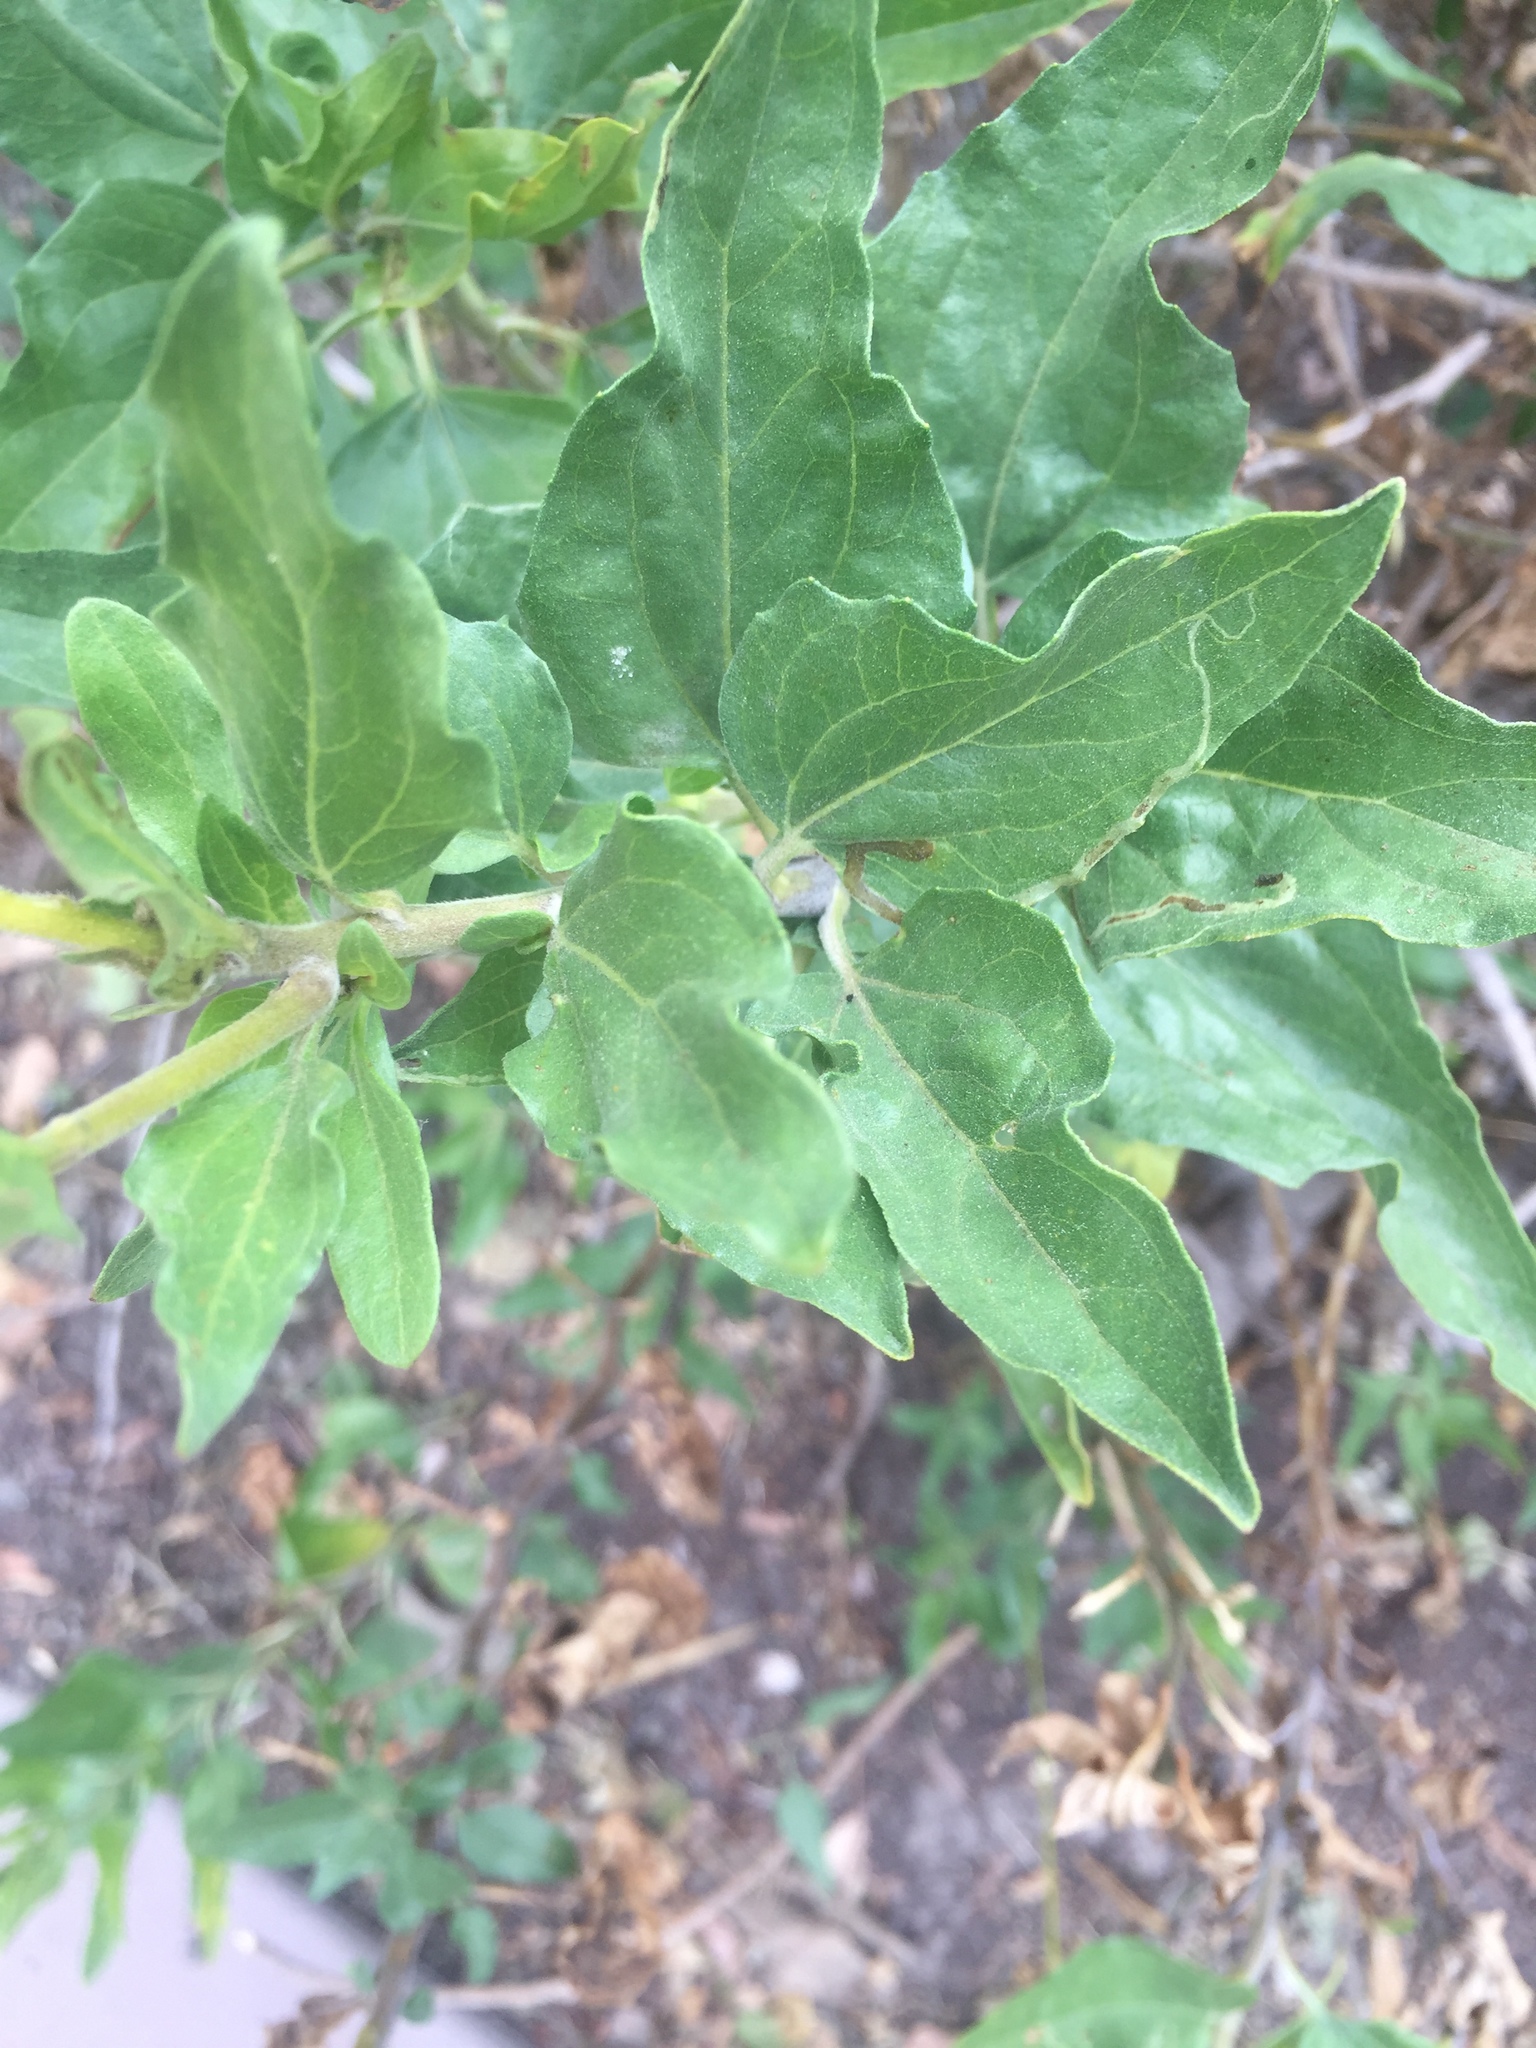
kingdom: Plantae
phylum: Tracheophyta
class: Magnoliopsida
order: Asterales
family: Asteraceae
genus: Encelia
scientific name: Encelia californica
